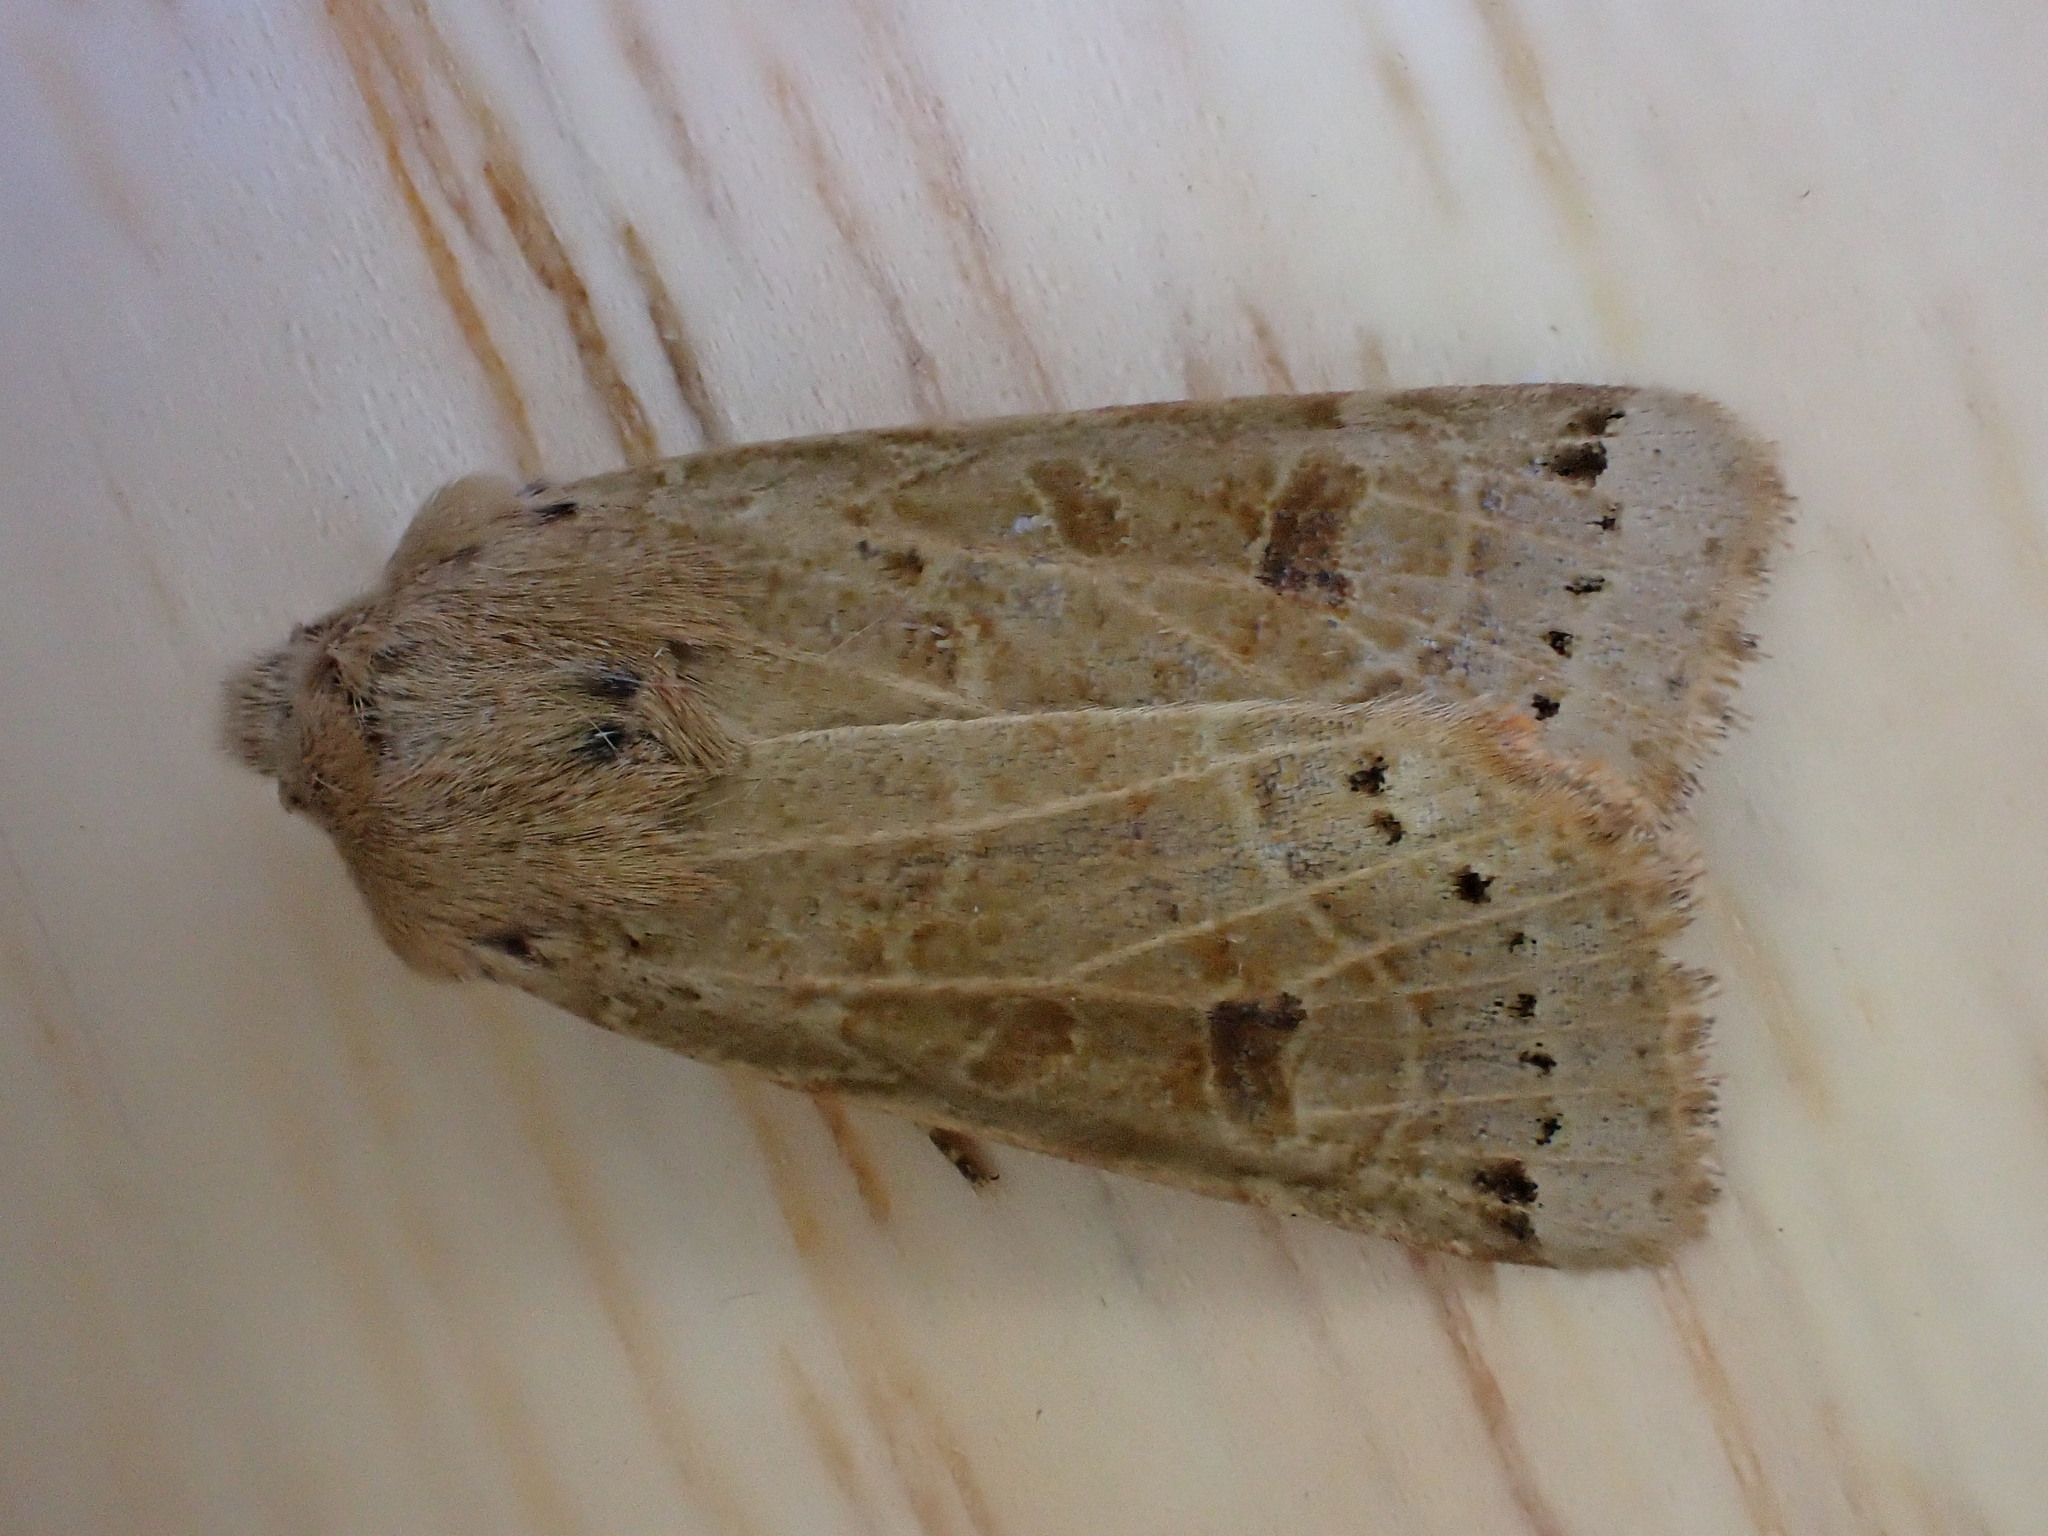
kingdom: Animalia
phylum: Arthropoda
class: Insecta
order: Lepidoptera
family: Noctuidae
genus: Agrochola
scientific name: Agrochola lunosa
